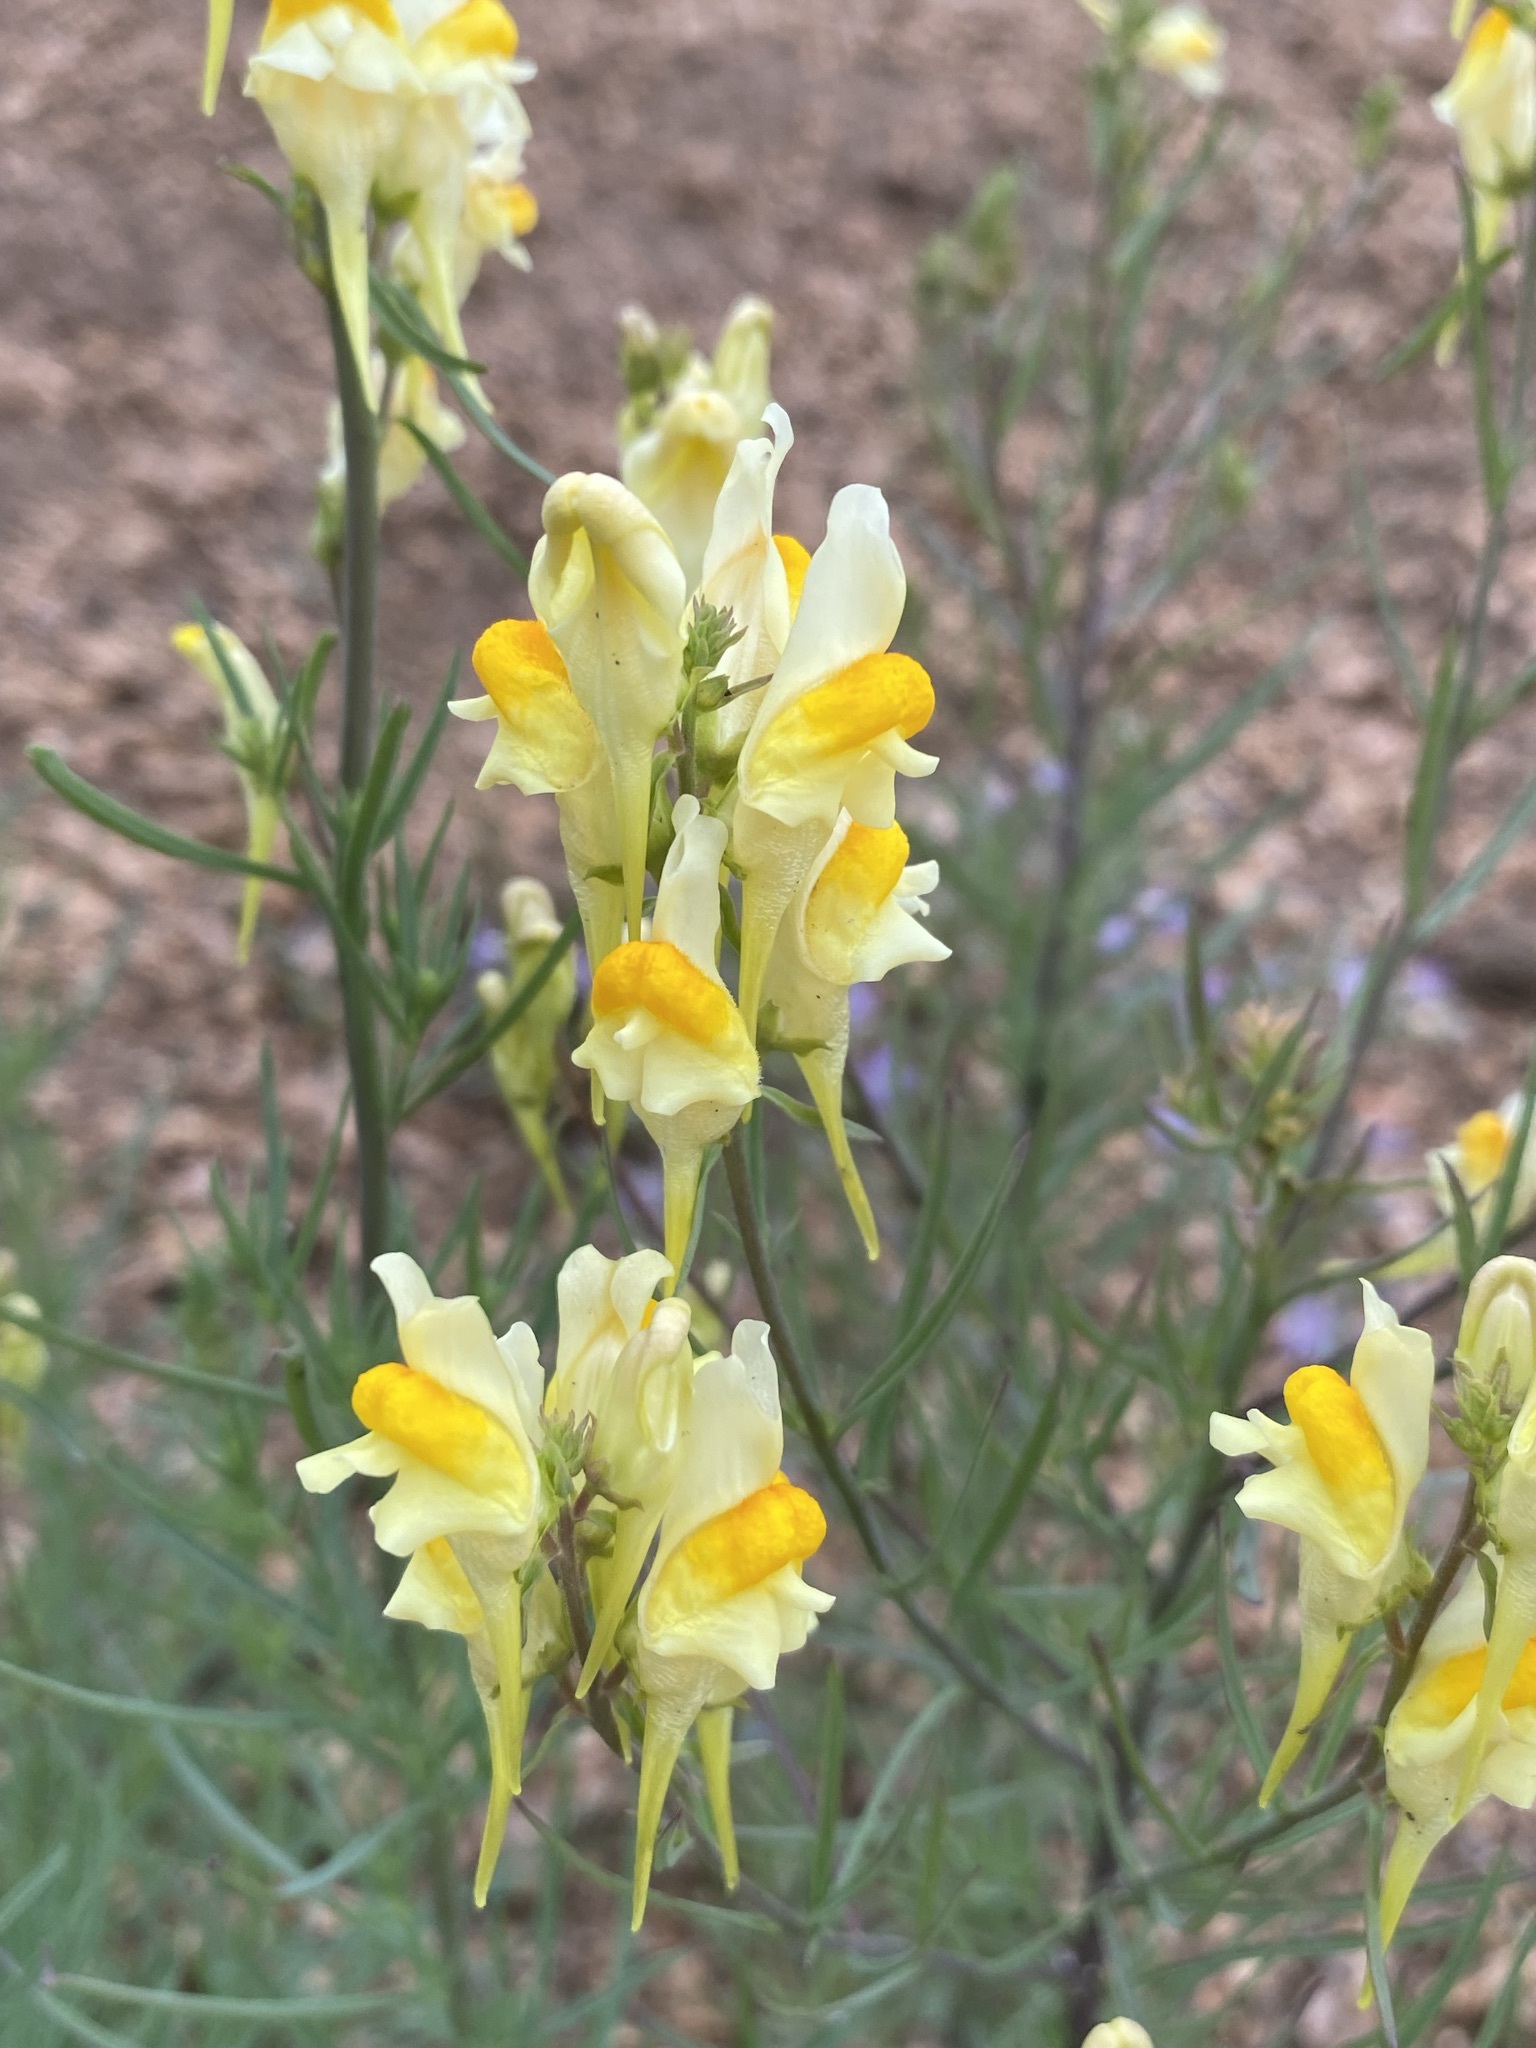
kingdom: Plantae
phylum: Tracheophyta
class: Magnoliopsida
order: Lamiales
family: Plantaginaceae
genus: Linaria
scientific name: Linaria vulgaris
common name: Butter and eggs
